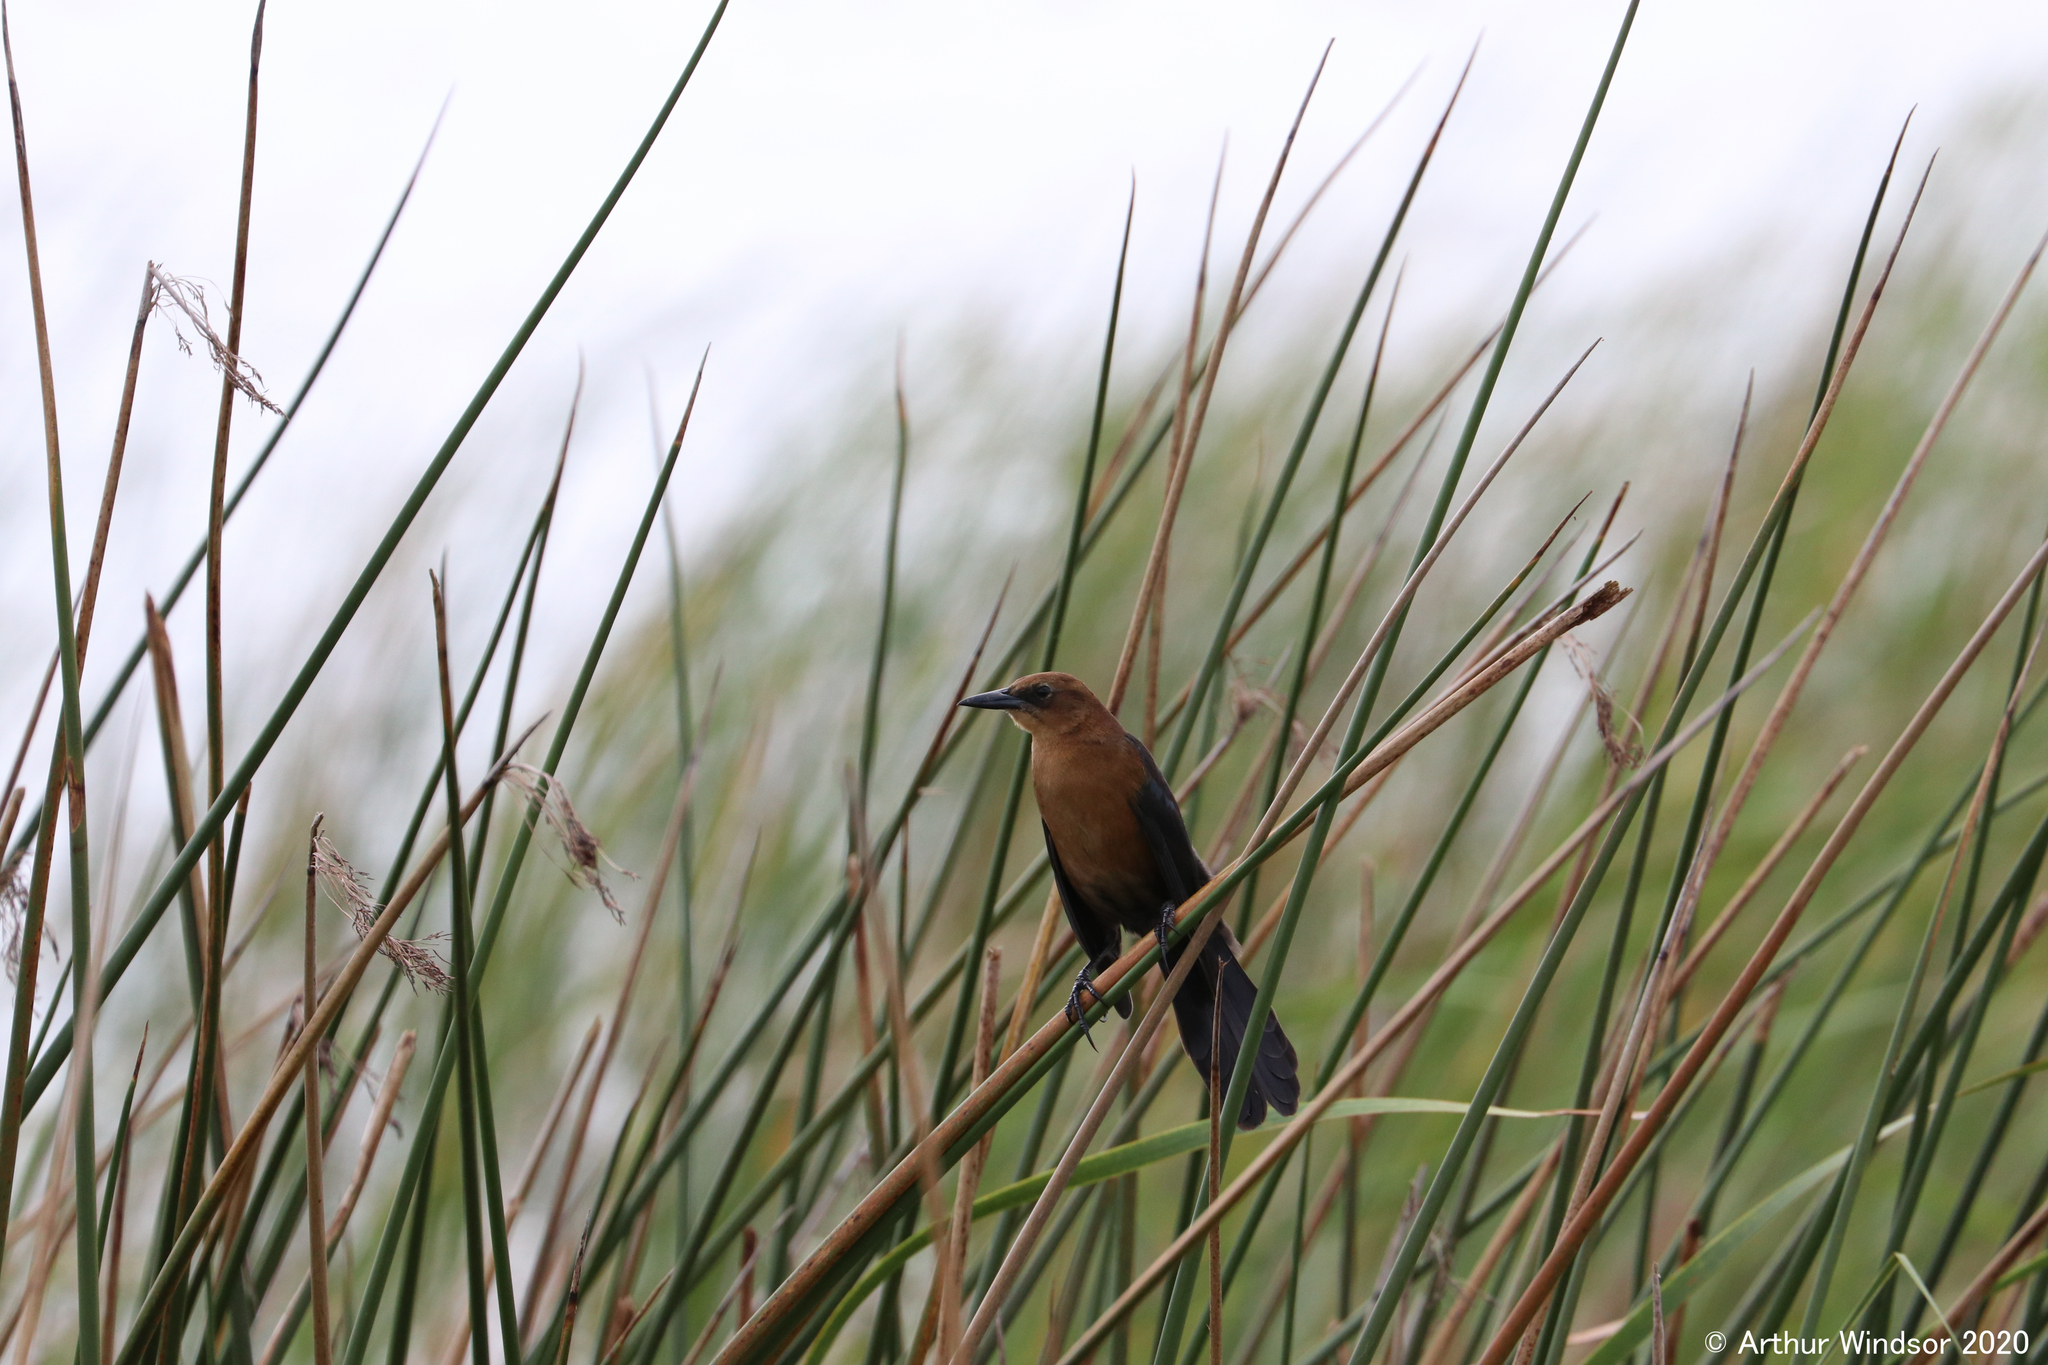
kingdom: Animalia
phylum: Chordata
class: Aves
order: Passeriformes
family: Icteridae
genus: Quiscalus
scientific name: Quiscalus major
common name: Boat-tailed grackle
